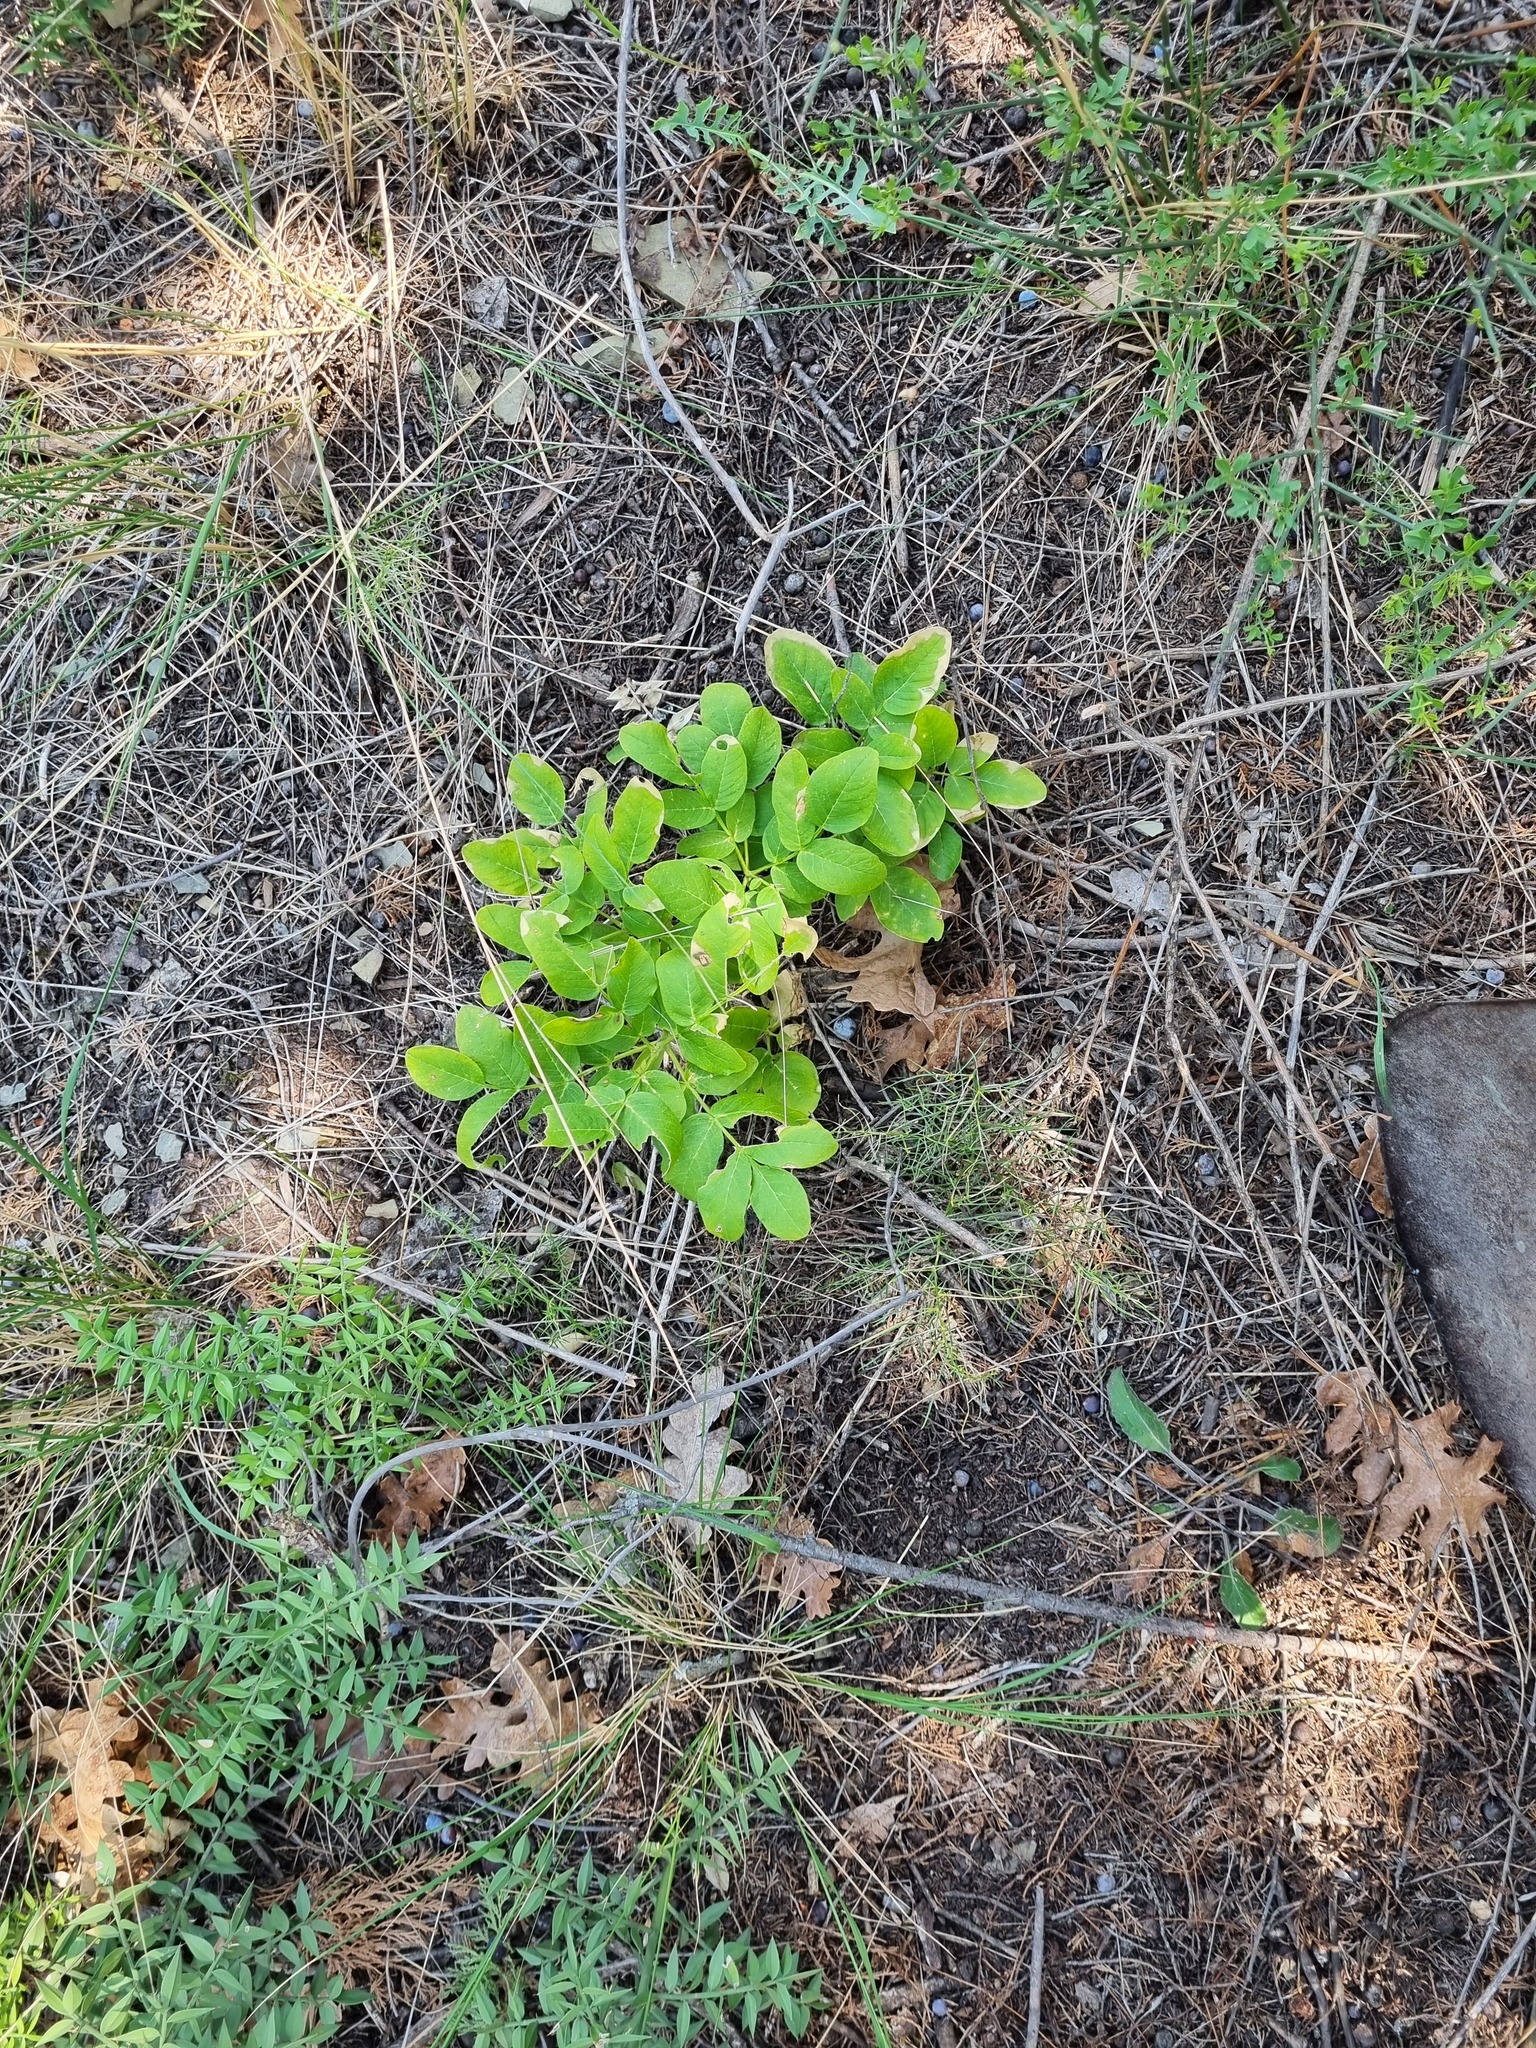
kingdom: Plantae
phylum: Tracheophyta
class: Magnoliopsida
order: Sapindales
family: Rutaceae
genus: Dictamnus
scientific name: Dictamnus albus
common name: Gasplant
